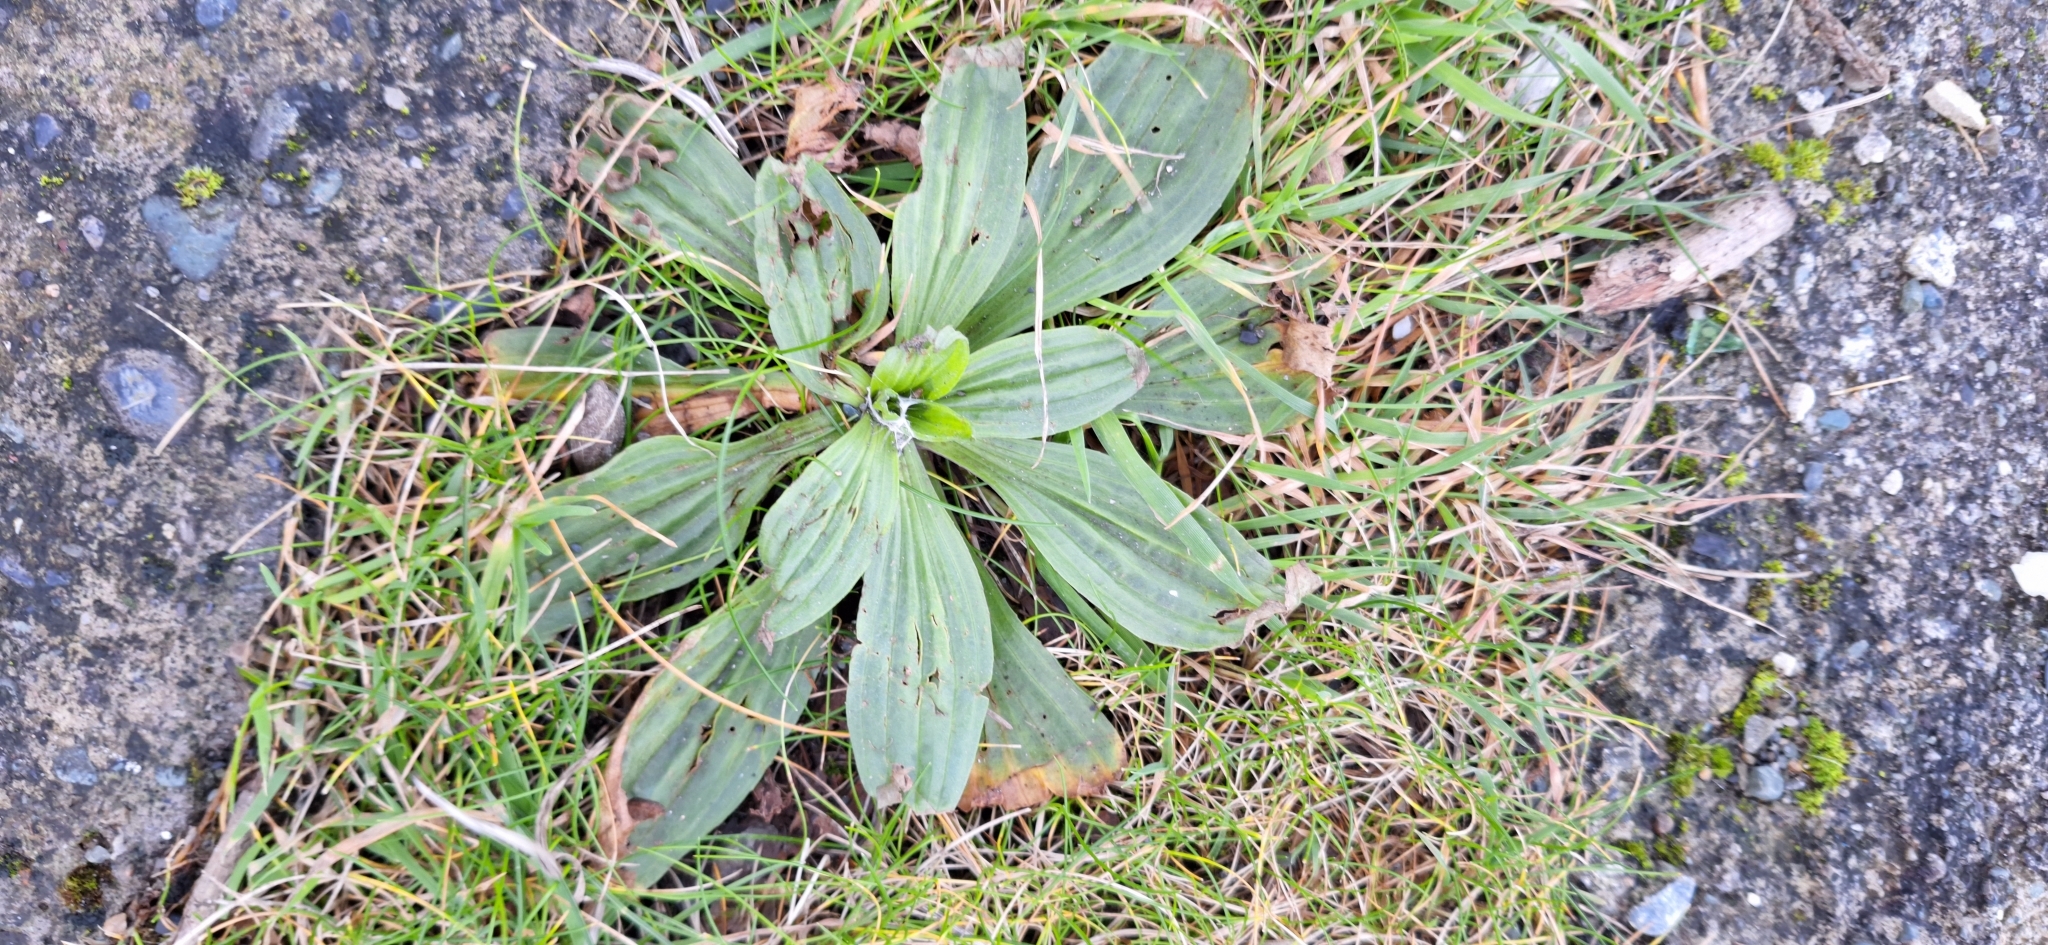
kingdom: Plantae
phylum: Tracheophyta
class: Magnoliopsida
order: Lamiales
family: Plantaginaceae
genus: Plantago
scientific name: Plantago media
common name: Hoary plantain
